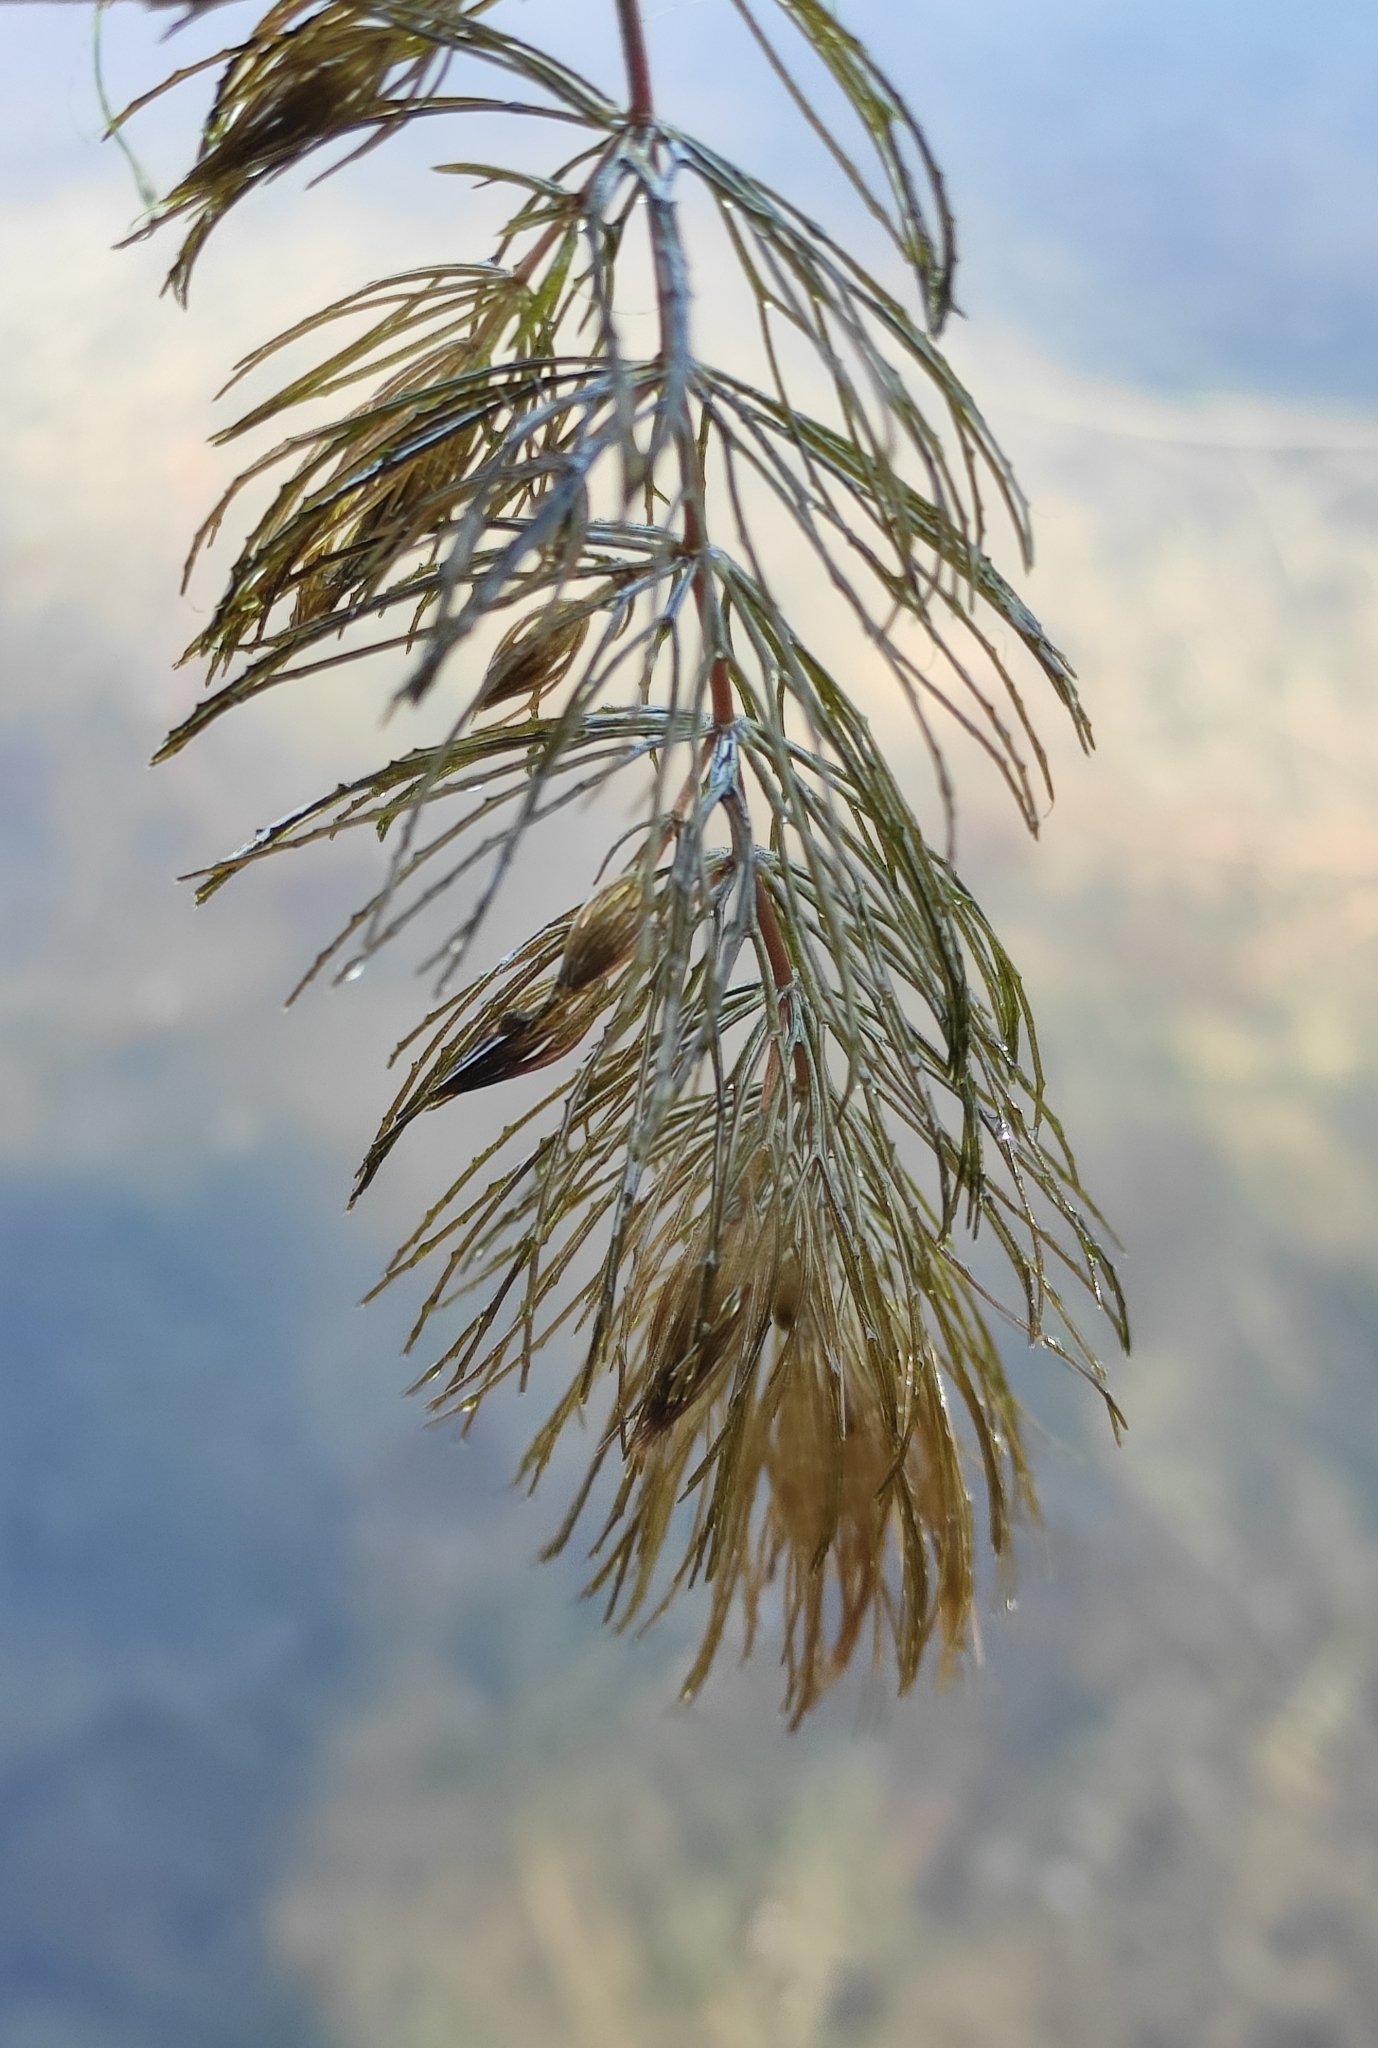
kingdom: Plantae
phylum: Tracheophyta
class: Magnoliopsida
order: Ceratophyllales
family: Ceratophyllaceae
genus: Ceratophyllum
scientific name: Ceratophyllum demersum
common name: Rigid hornwort
